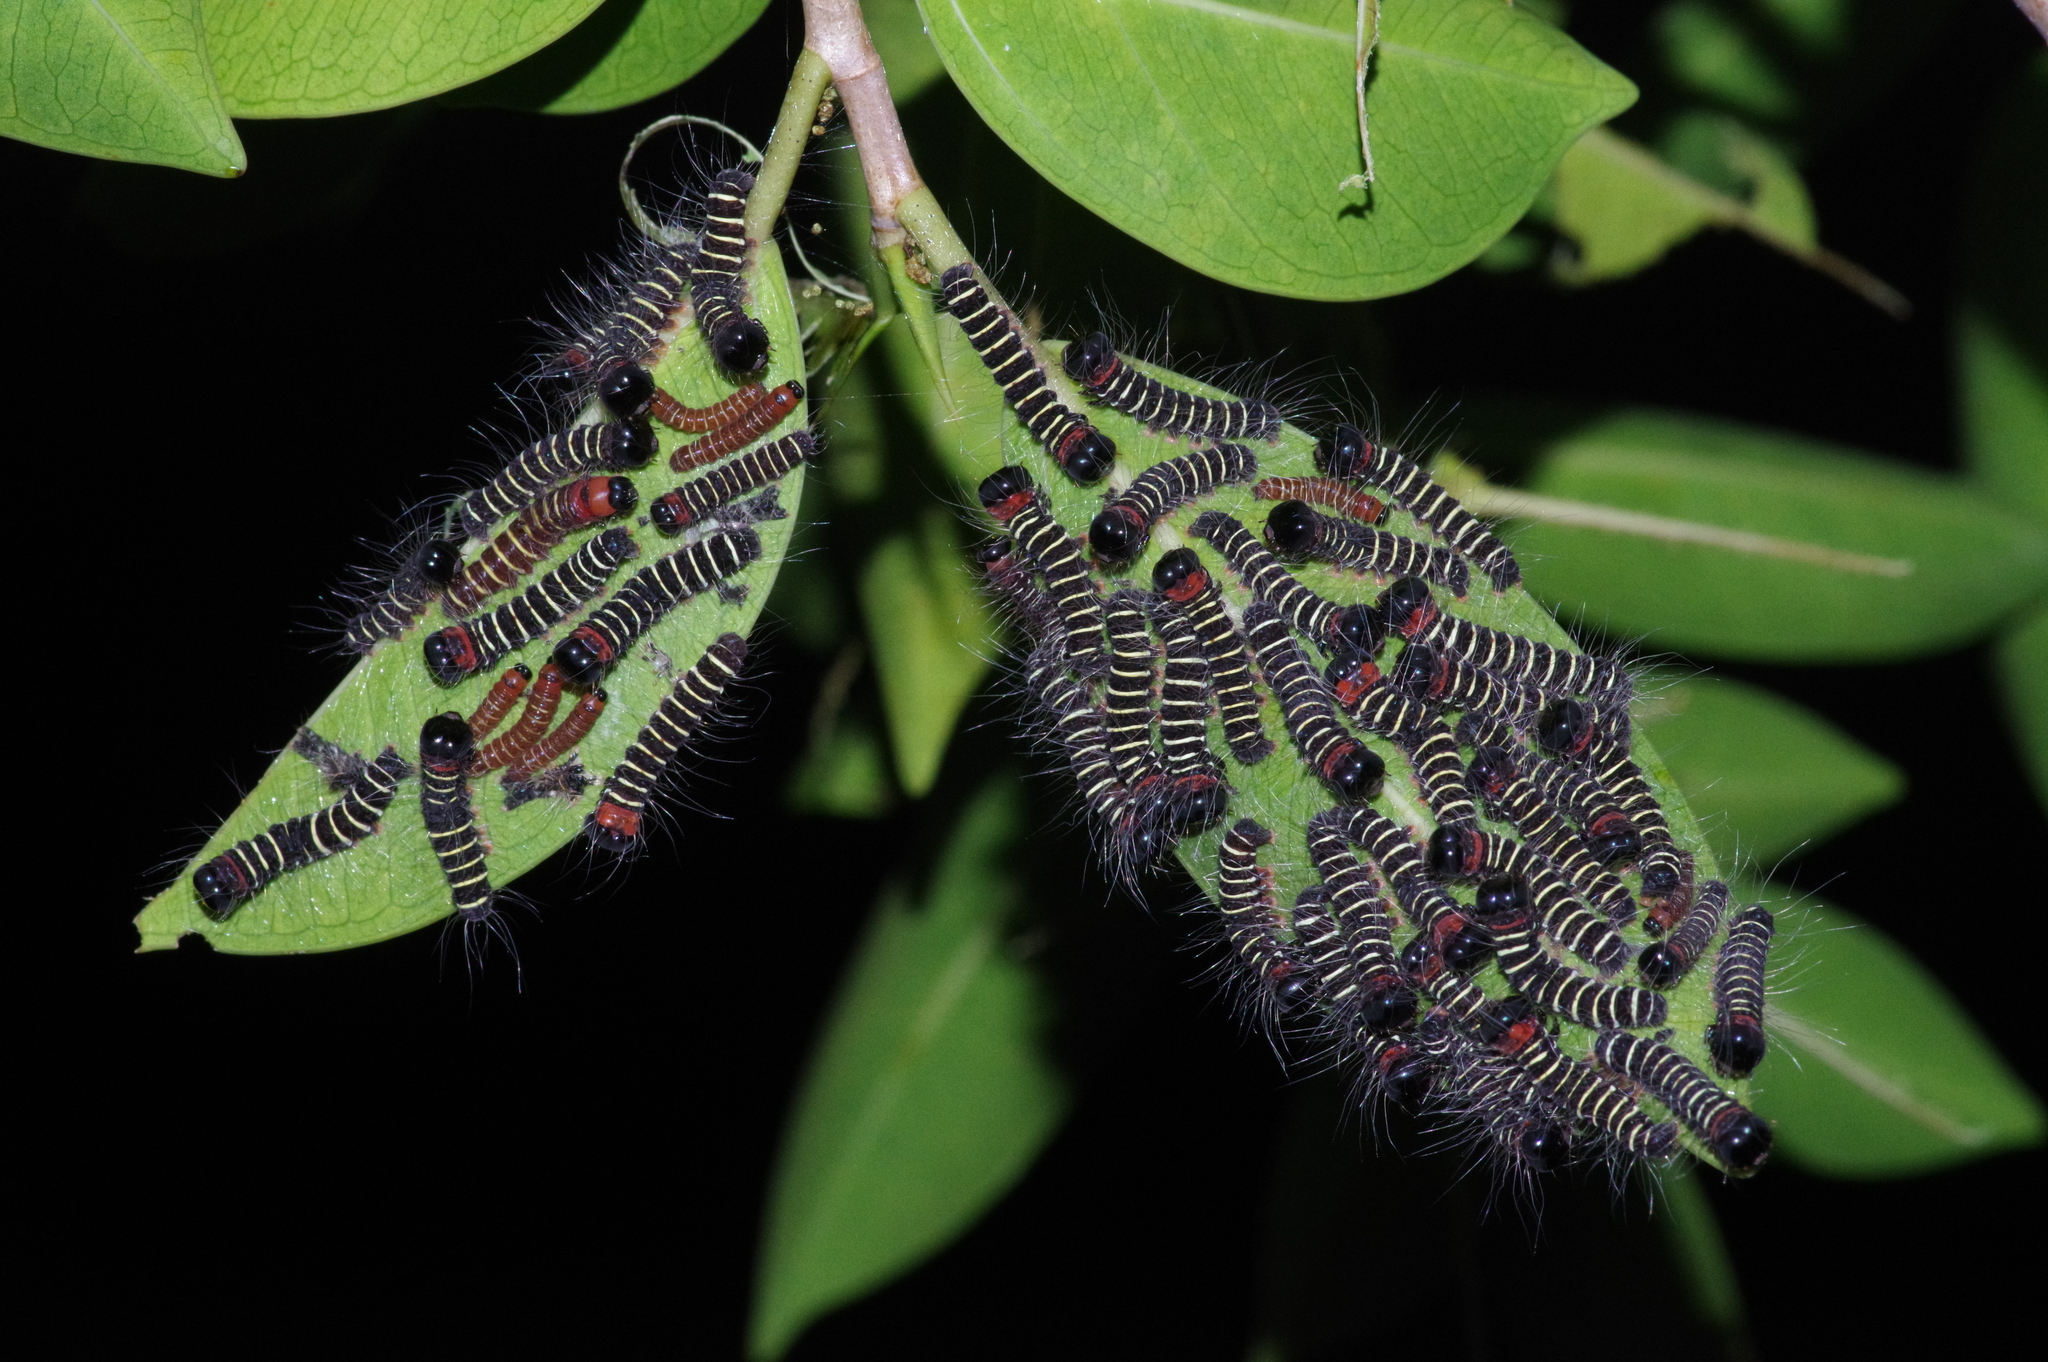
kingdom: Animalia
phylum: Arthropoda
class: Insecta
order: Lepidoptera
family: Erebidae
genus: Asota
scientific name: Asota plana
